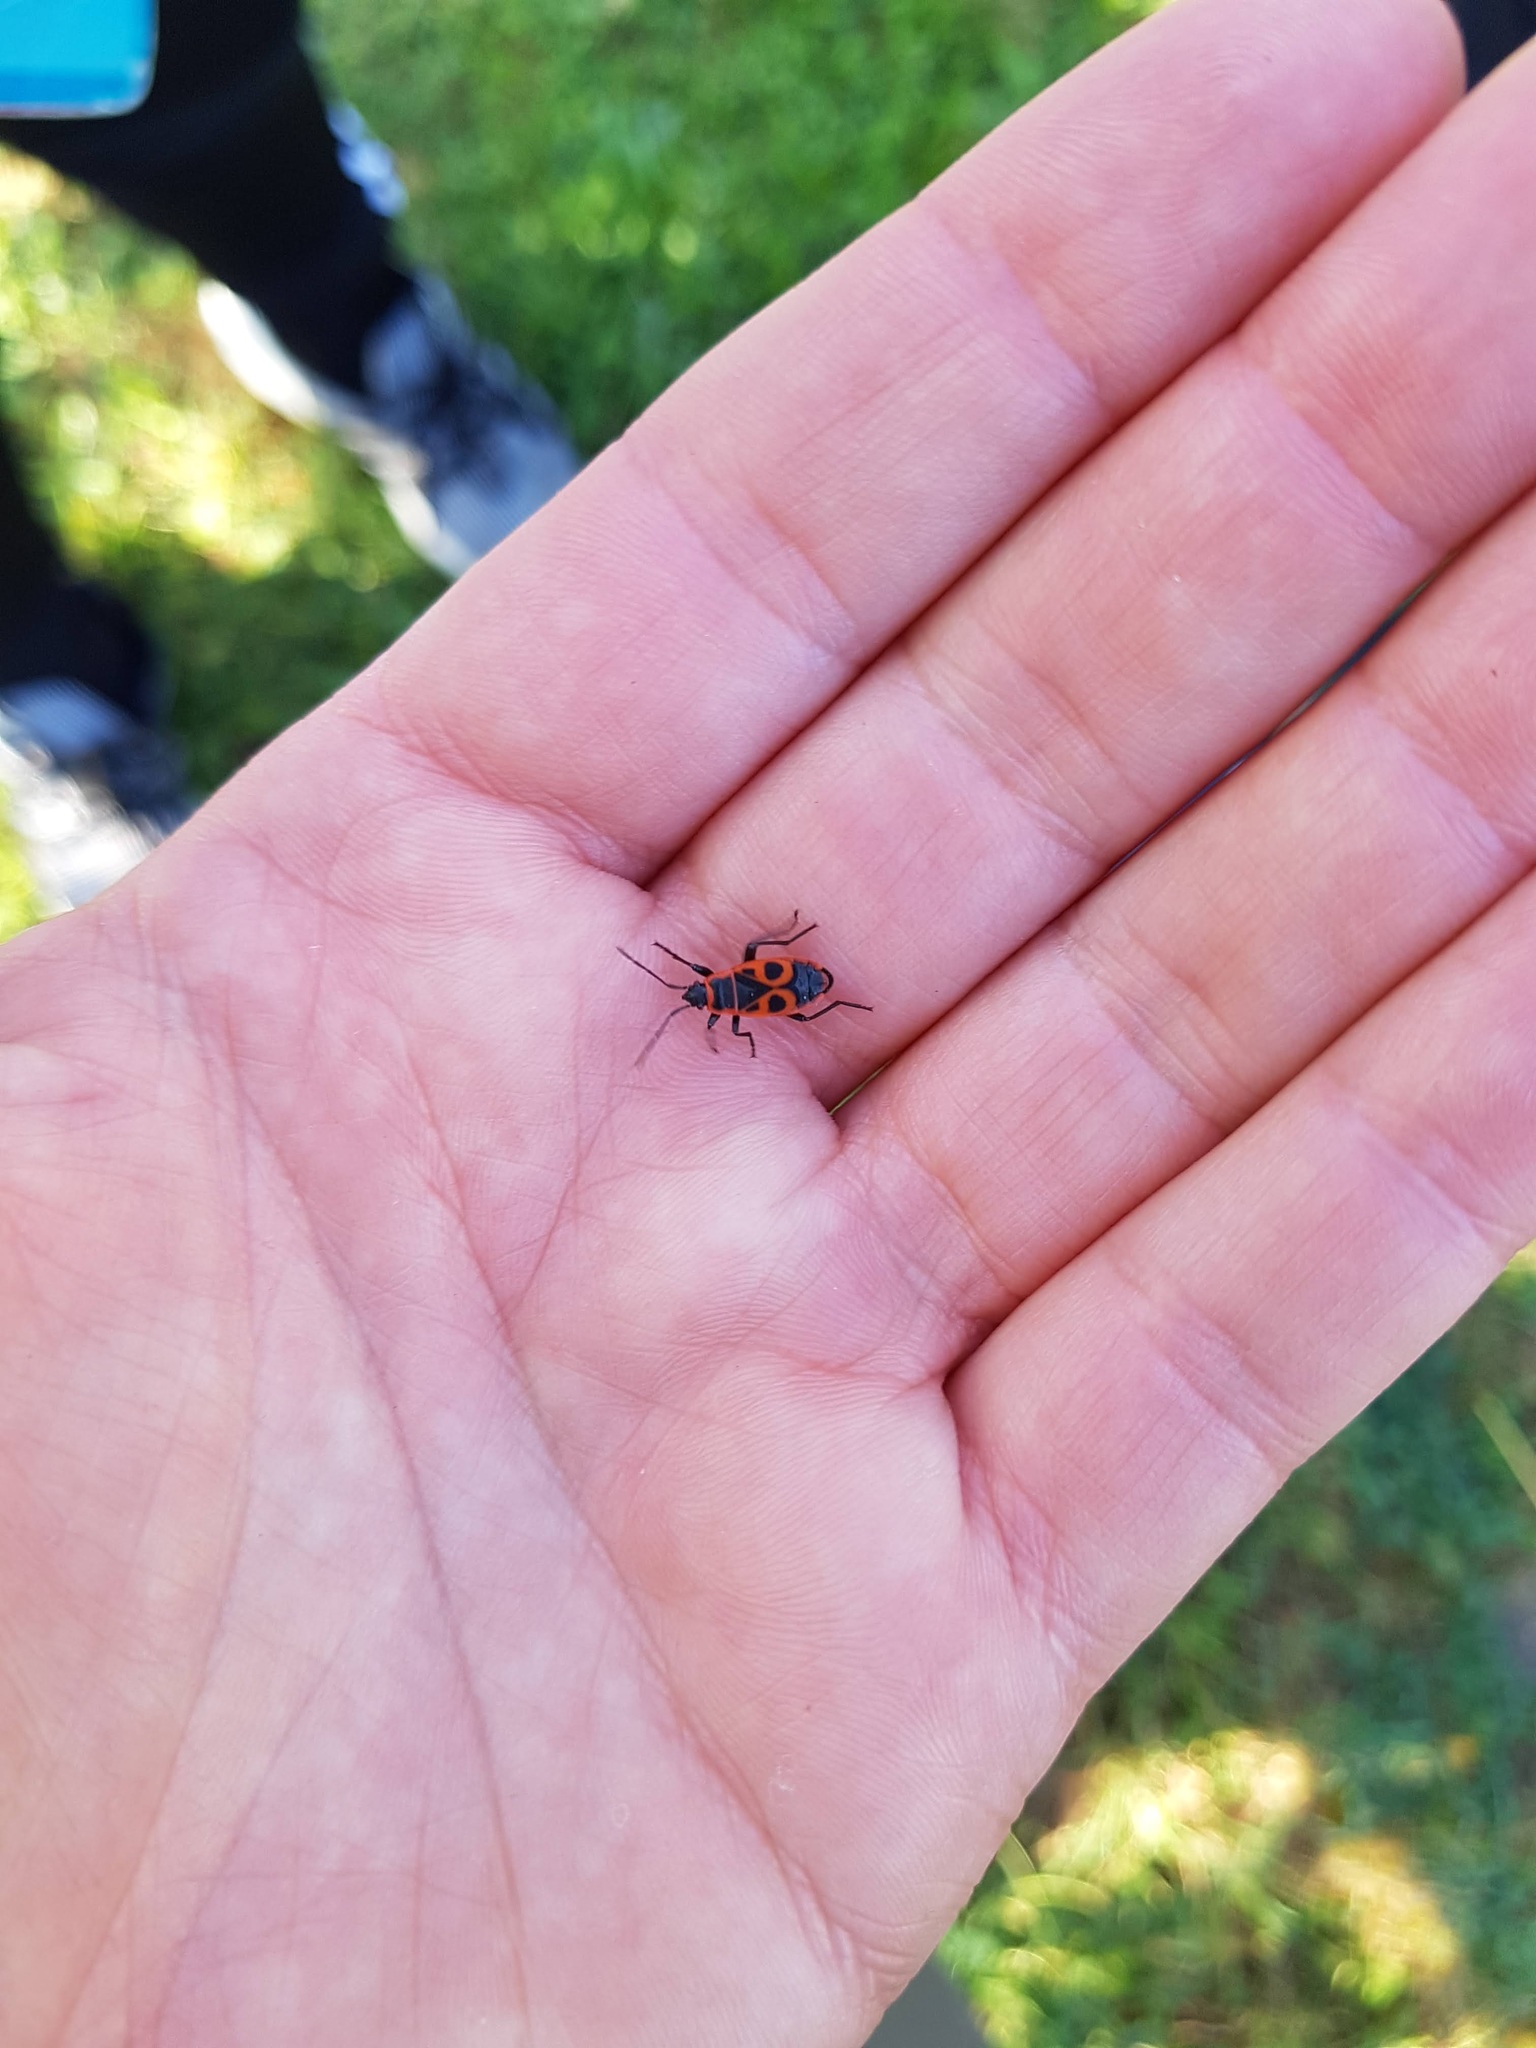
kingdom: Animalia
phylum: Arthropoda
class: Insecta
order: Hemiptera
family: Pyrrhocoridae
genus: Pyrrhocoris
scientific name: Pyrrhocoris apterus
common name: Firebug
